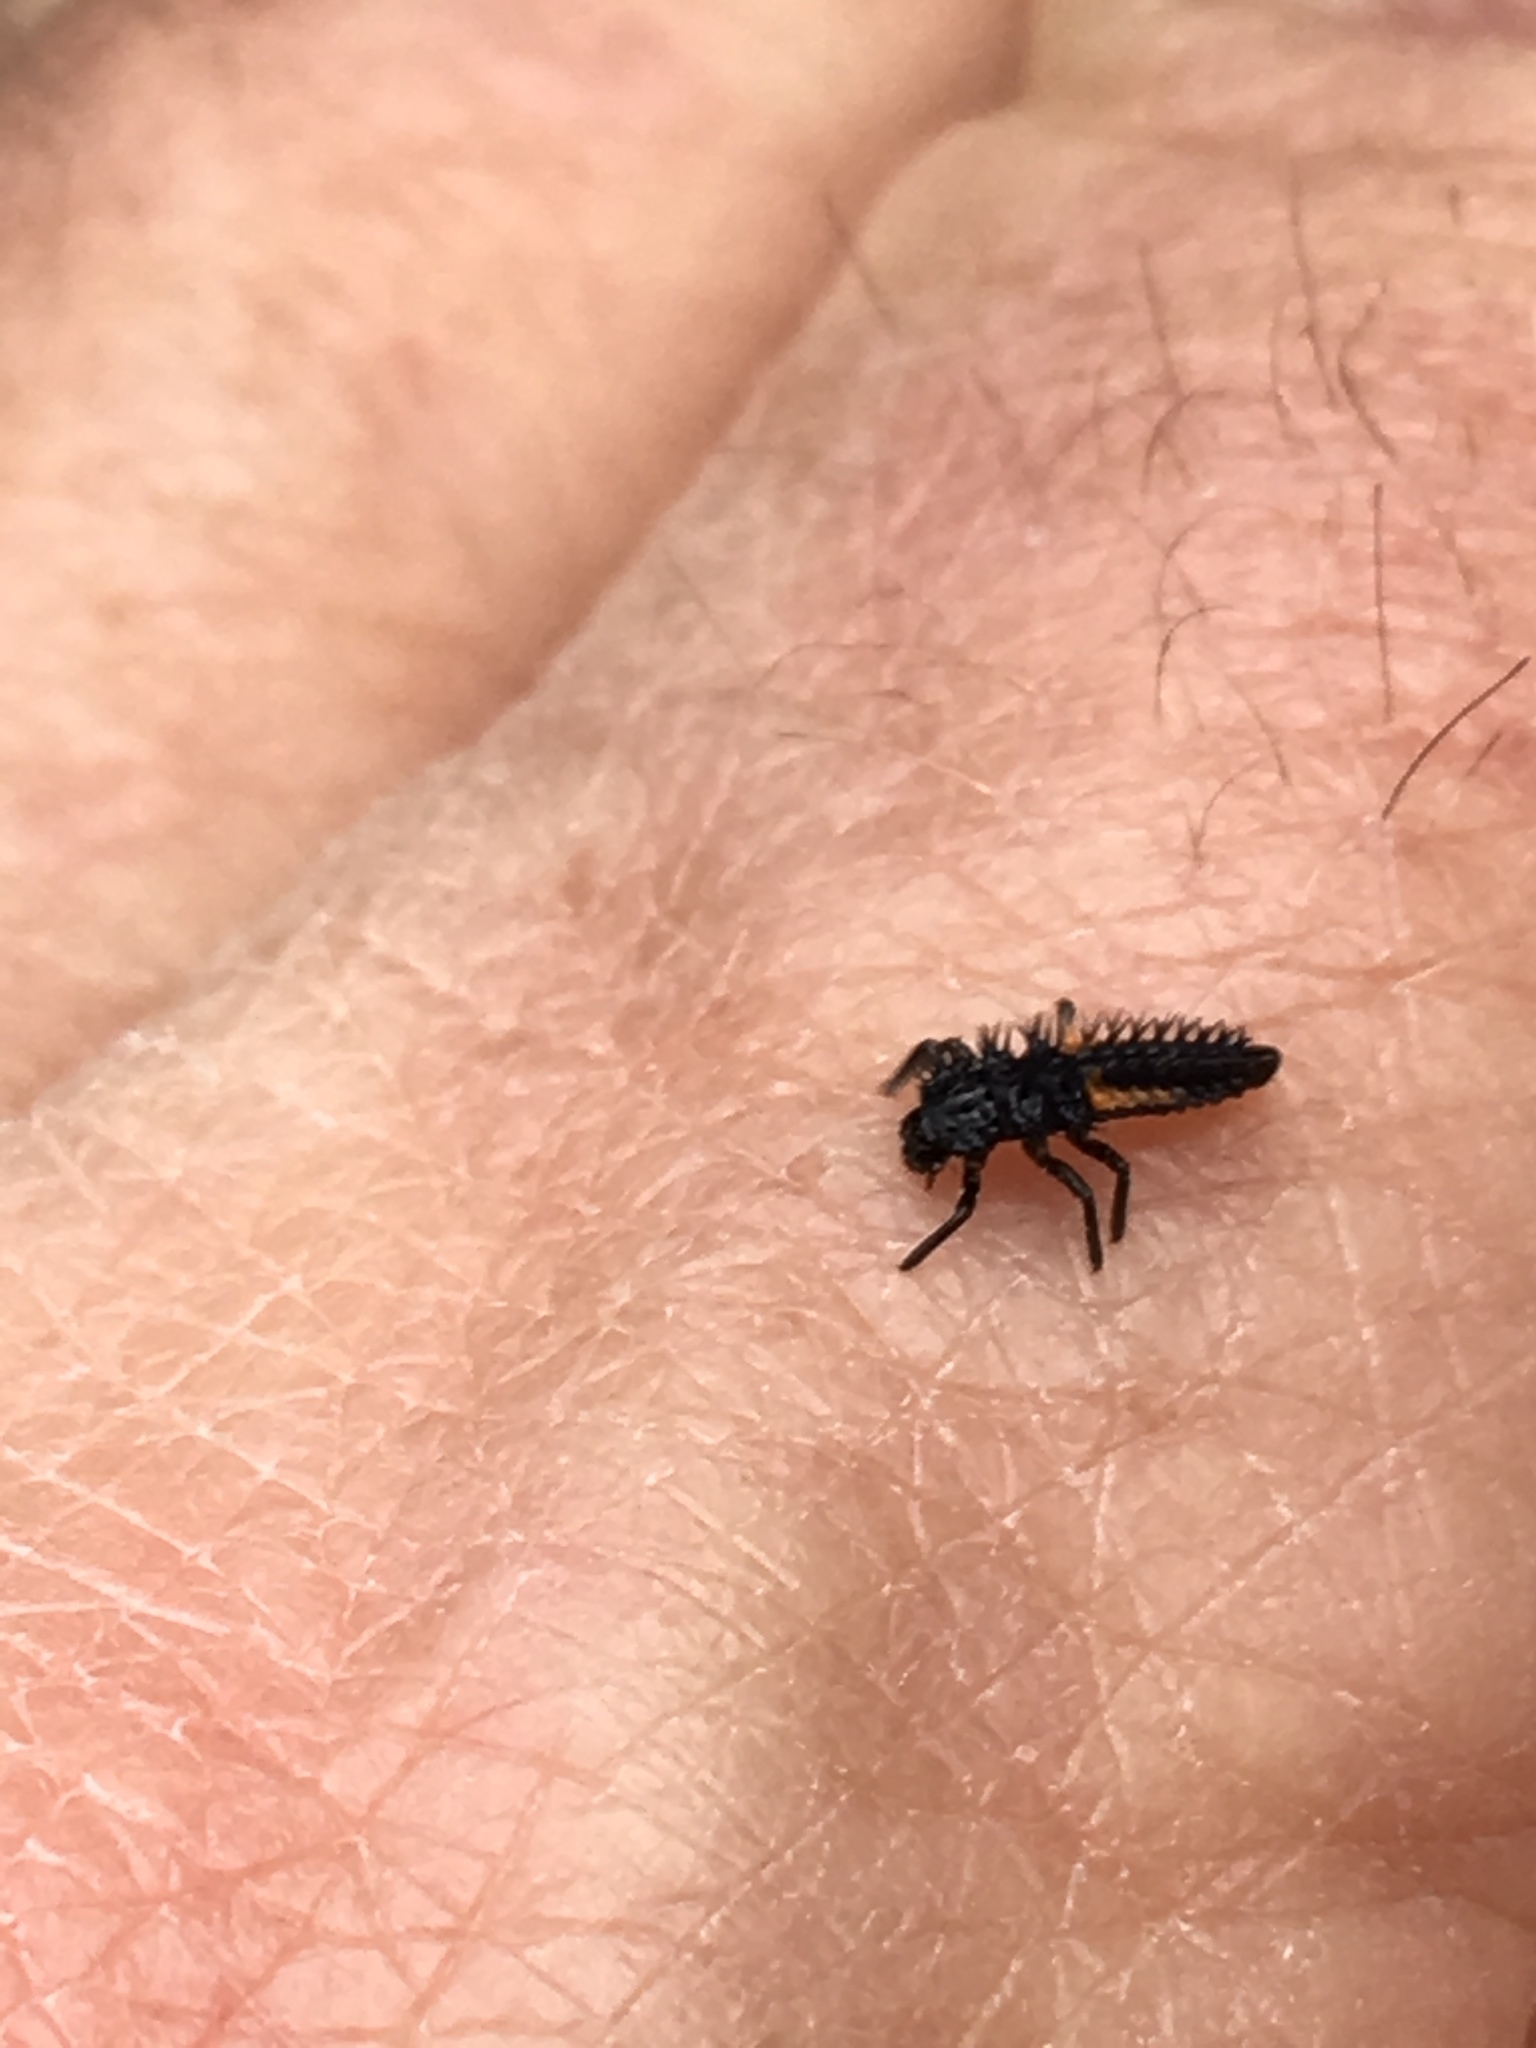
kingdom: Animalia
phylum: Arthropoda
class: Insecta
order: Coleoptera
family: Coccinellidae
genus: Harmonia
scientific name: Harmonia axyridis
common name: Harlequin ladybird
